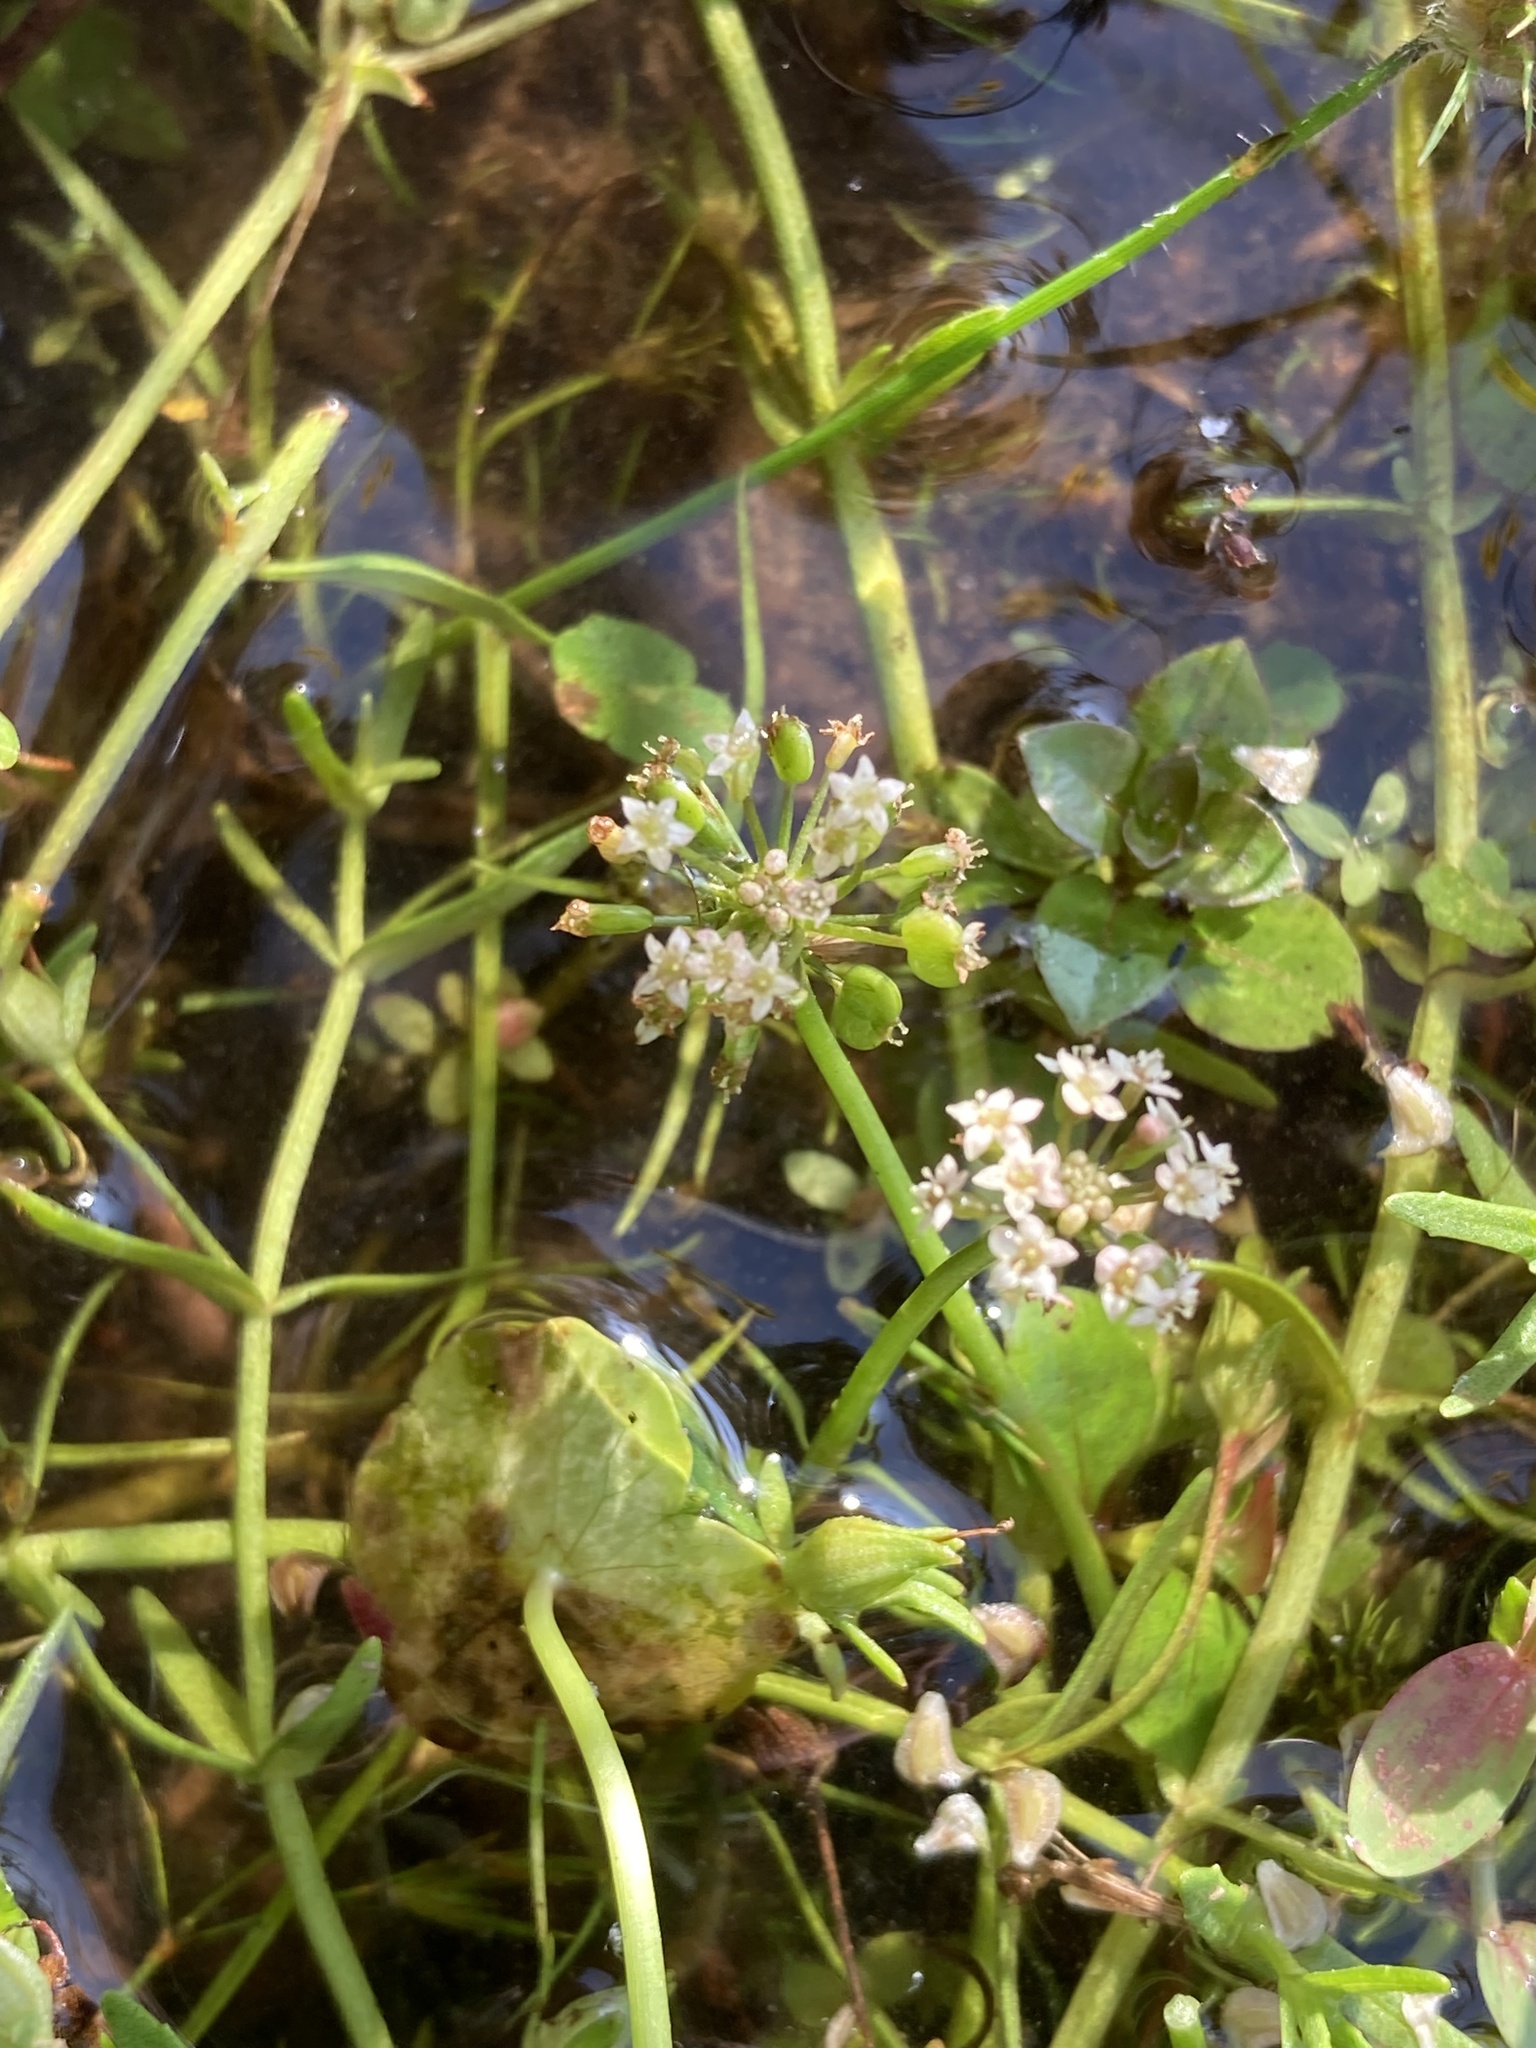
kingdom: Plantae
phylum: Tracheophyta
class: Magnoliopsida
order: Apiales
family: Araliaceae
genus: Hydrocotyle
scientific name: Hydrocotyle umbellata
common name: Water pennywort
